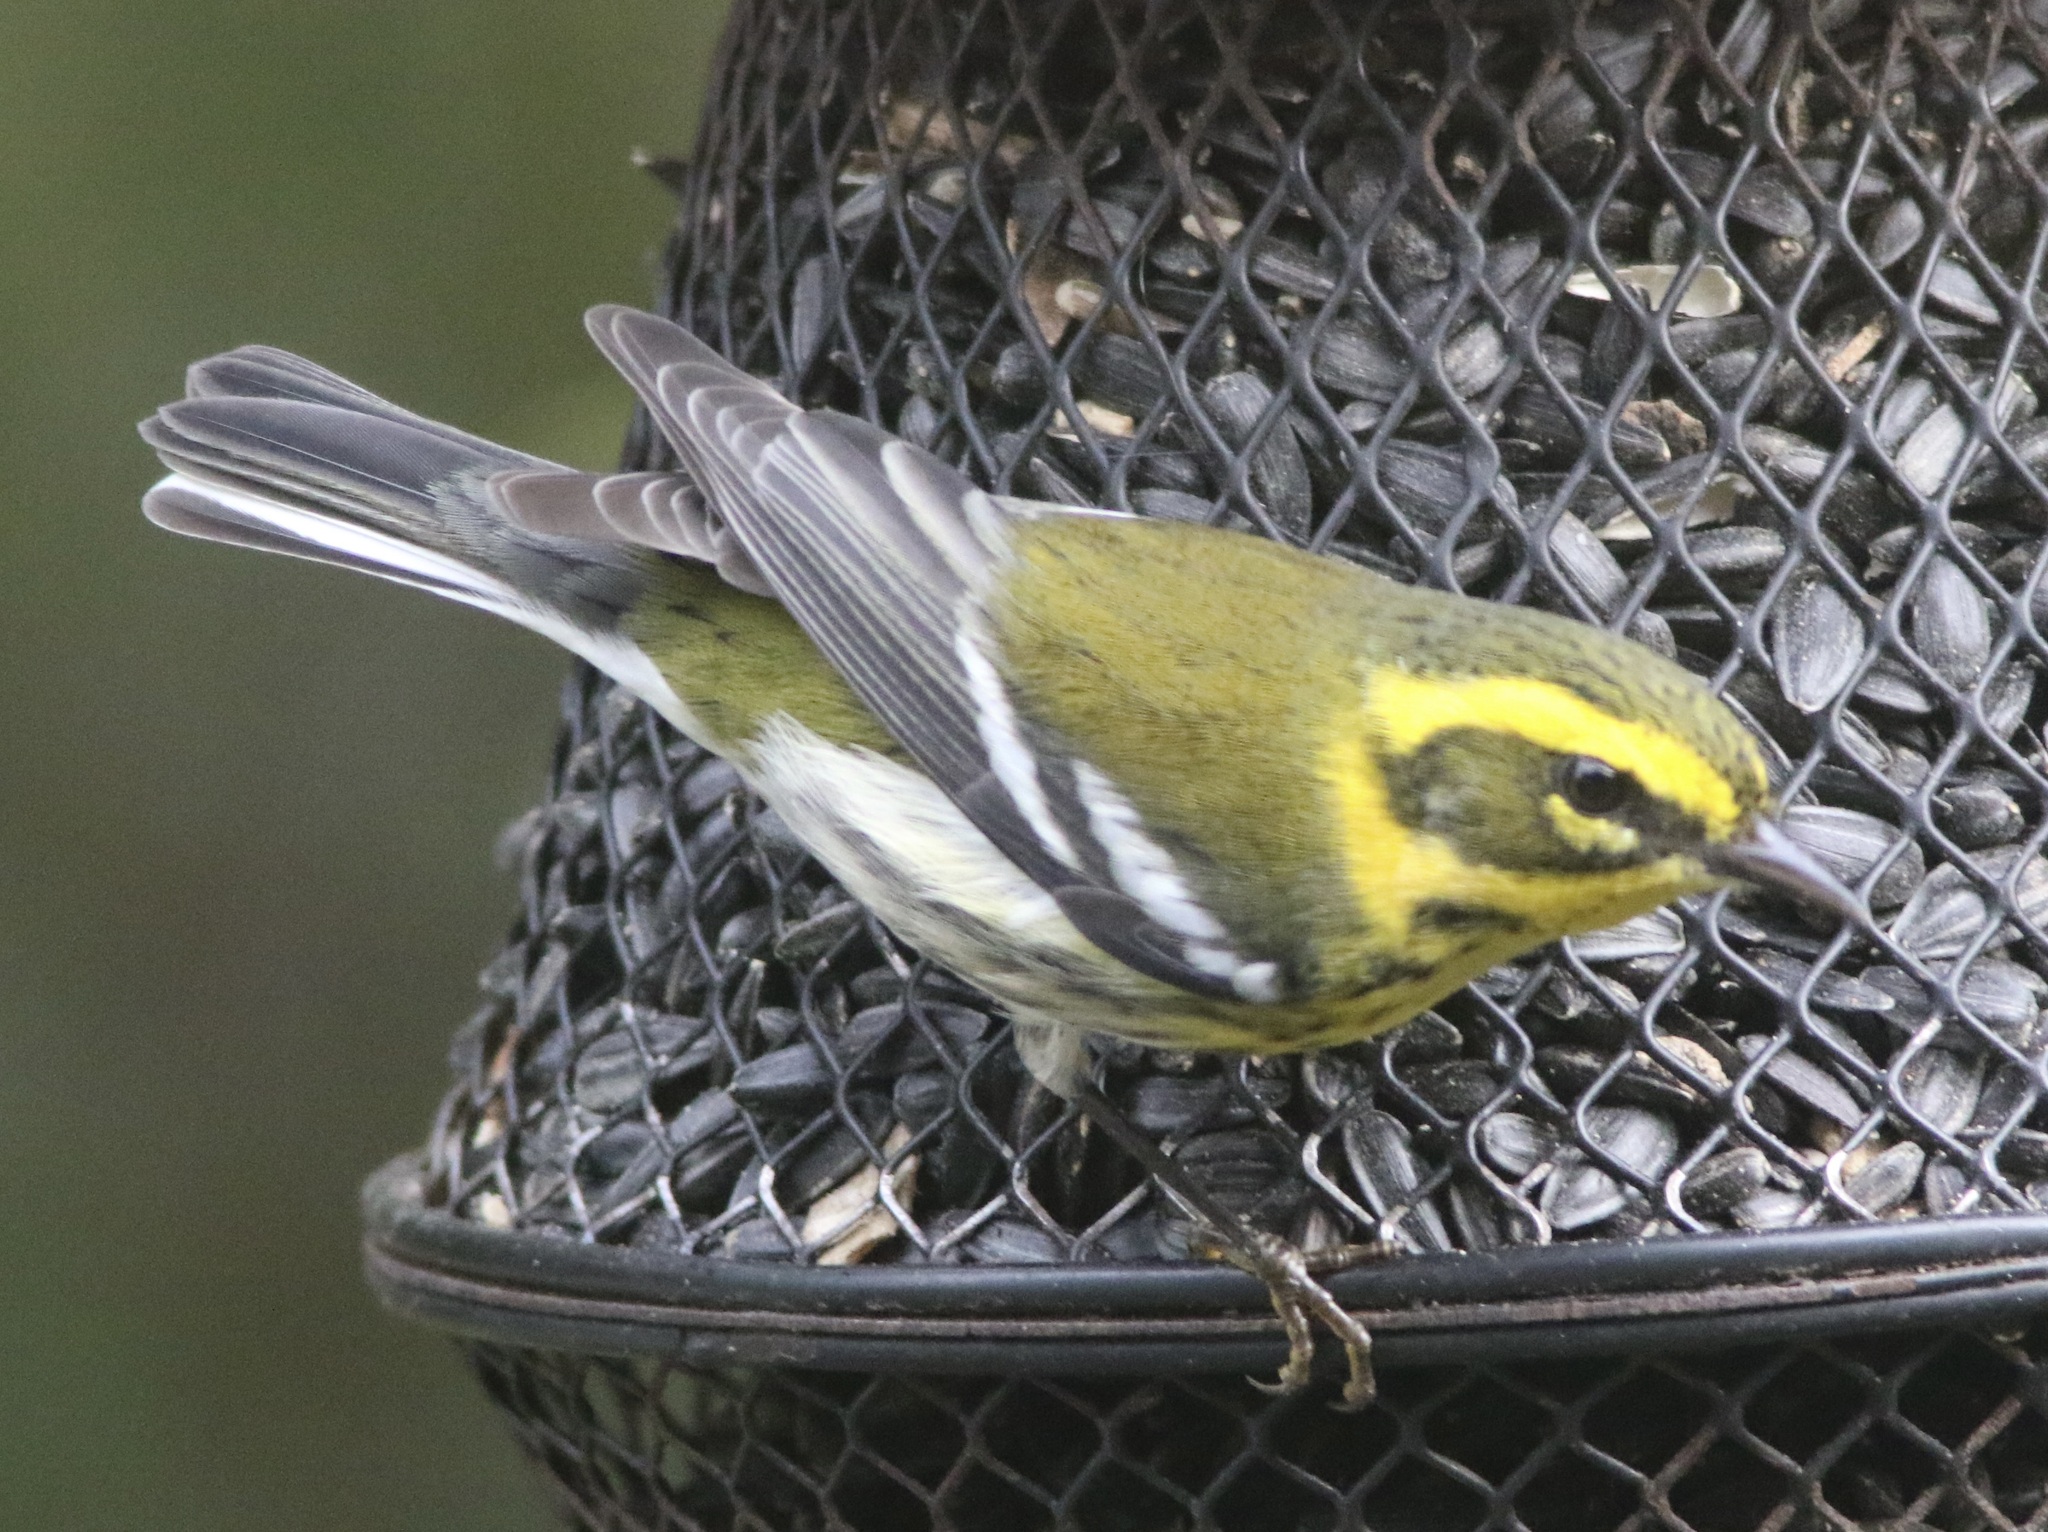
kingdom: Animalia
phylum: Chordata
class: Aves
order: Passeriformes
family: Parulidae
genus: Setophaga
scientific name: Setophaga townsendi
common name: Townsend's warbler
